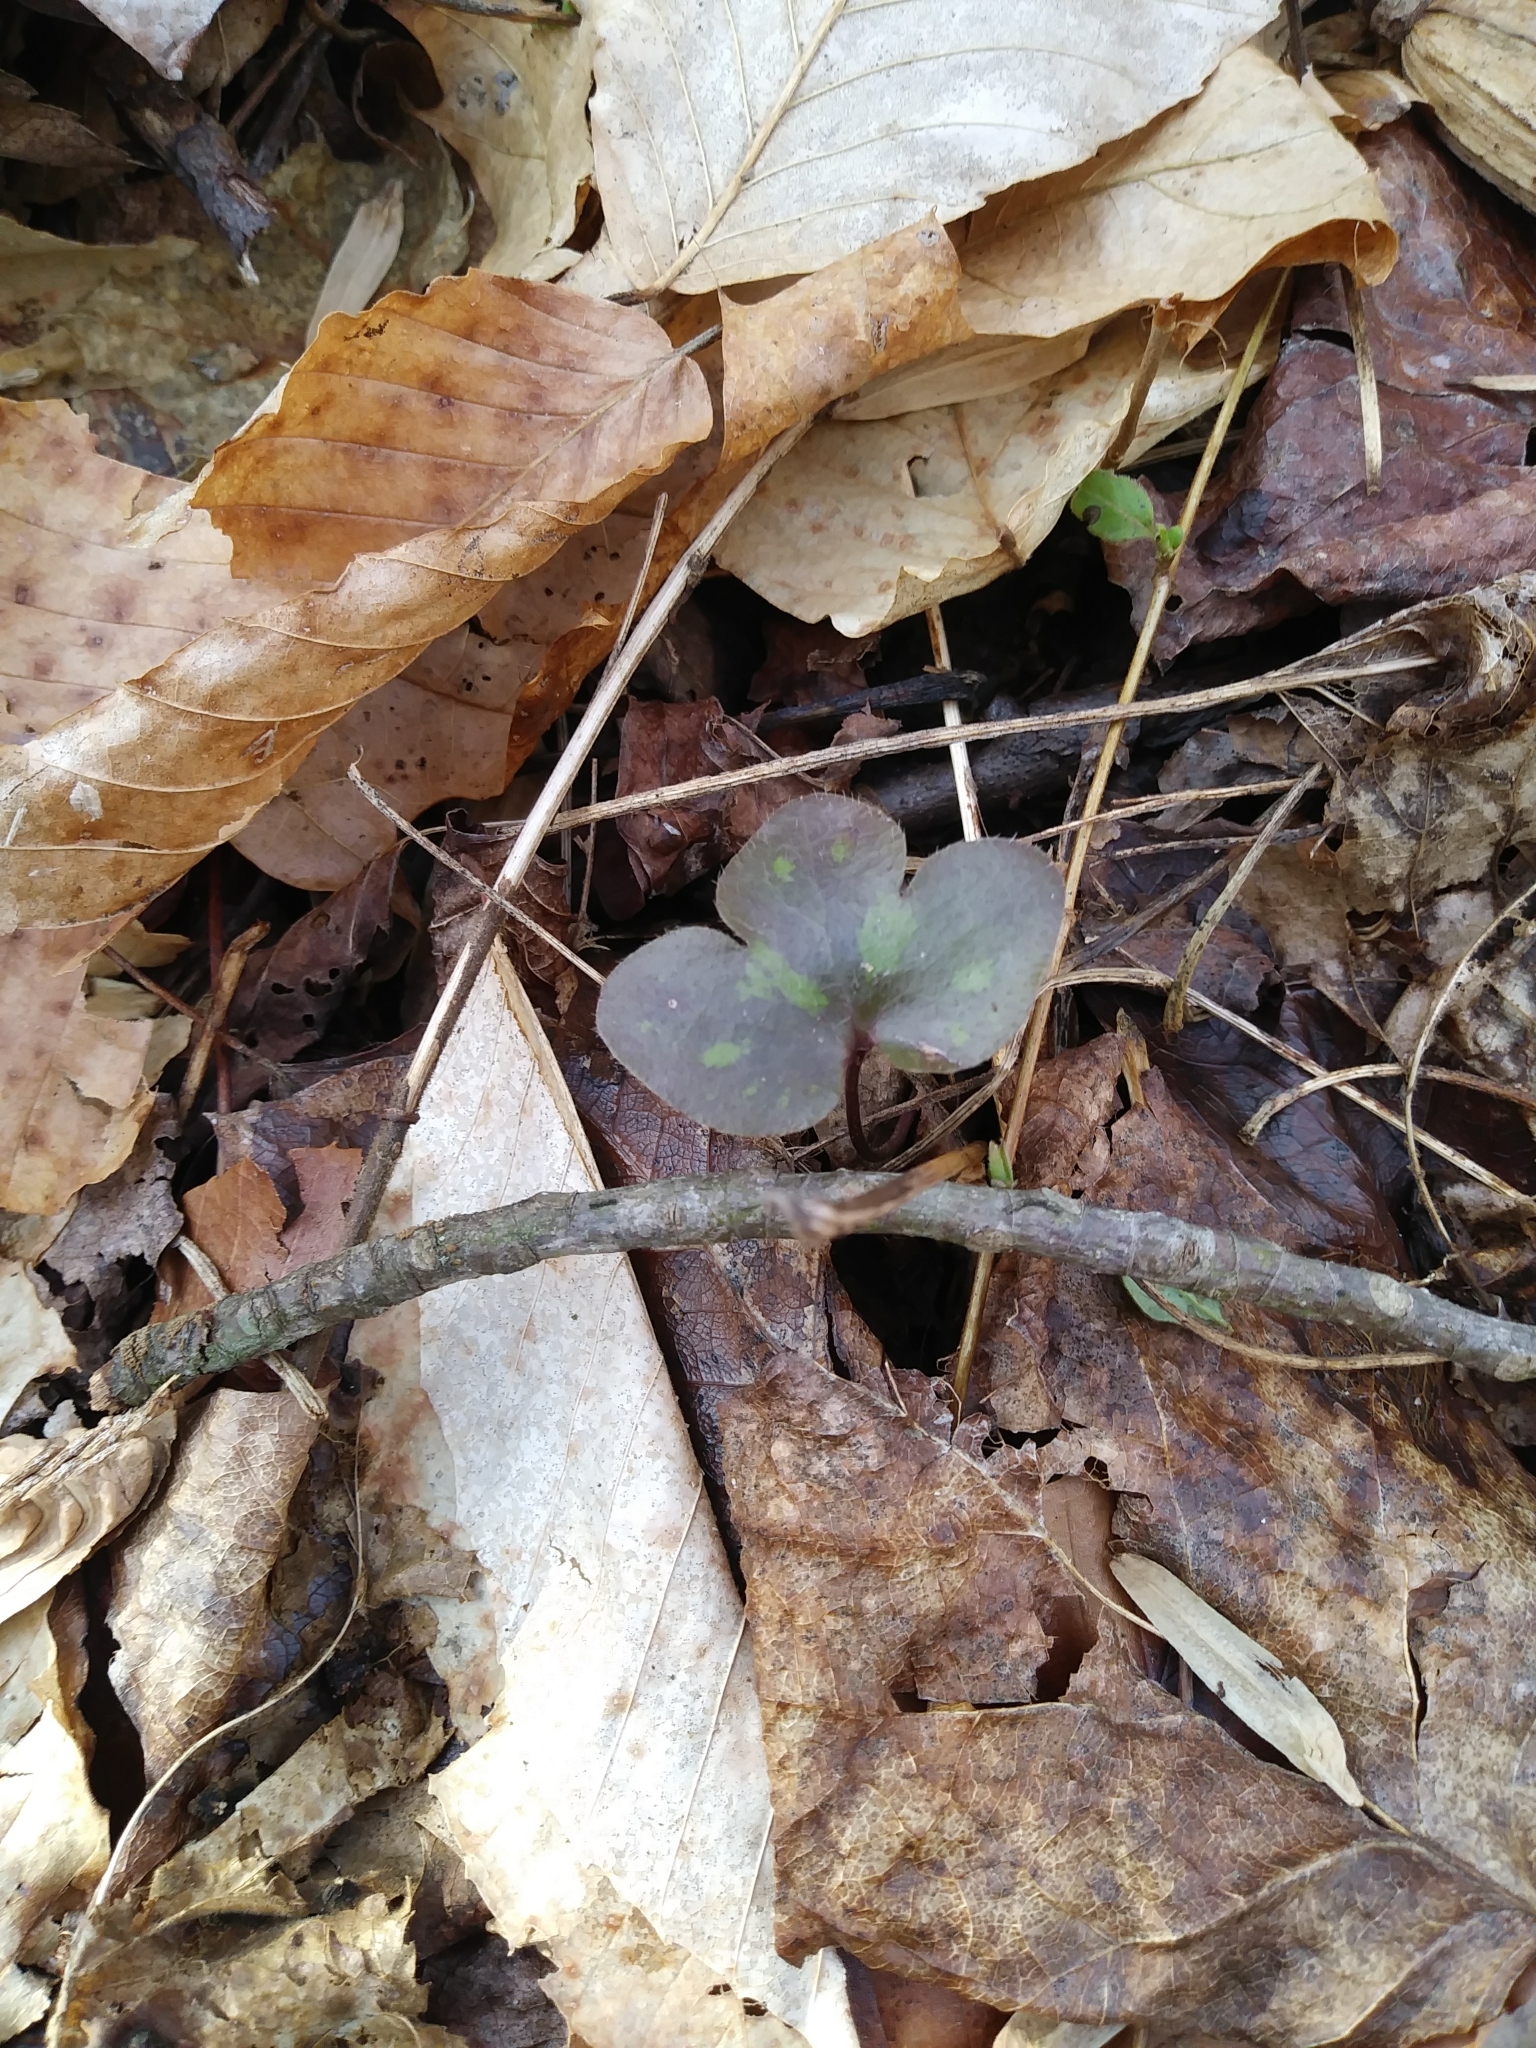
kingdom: Plantae
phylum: Tracheophyta
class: Magnoliopsida
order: Ranunculales
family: Ranunculaceae
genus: Hepatica
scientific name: Hepatica americana
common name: American hepatica
